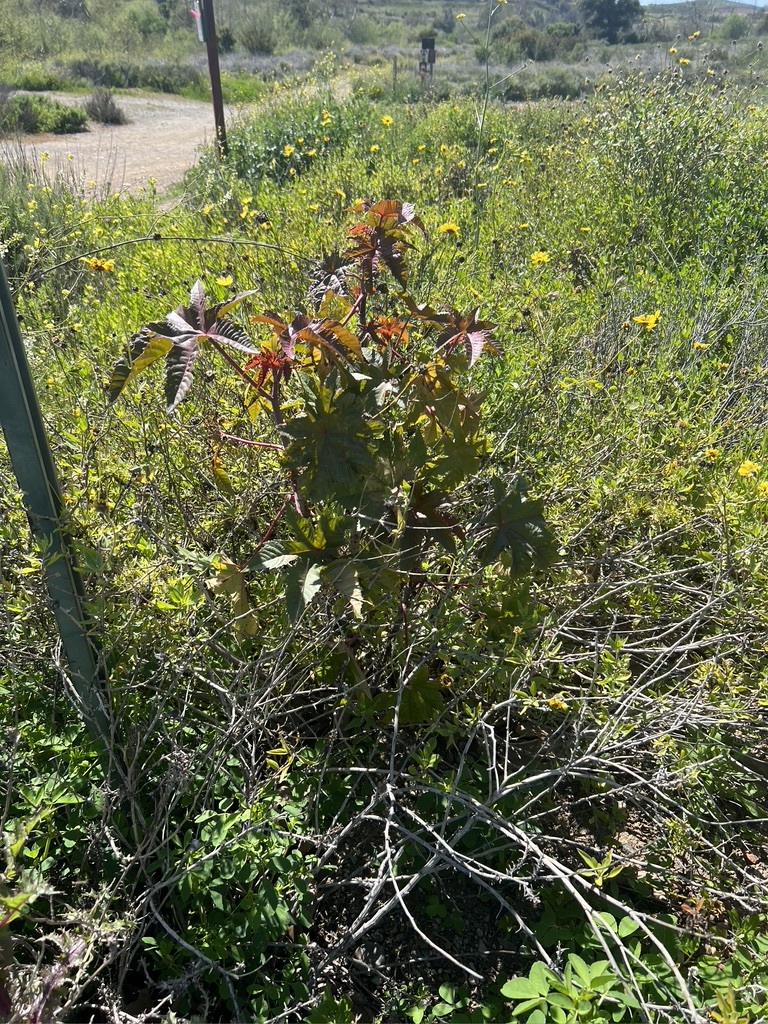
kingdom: Plantae
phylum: Tracheophyta
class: Magnoliopsida
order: Malpighiales
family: Euphorbiaceae
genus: Ricinus
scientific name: Ricinus communis
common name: Castor-oil-plant
